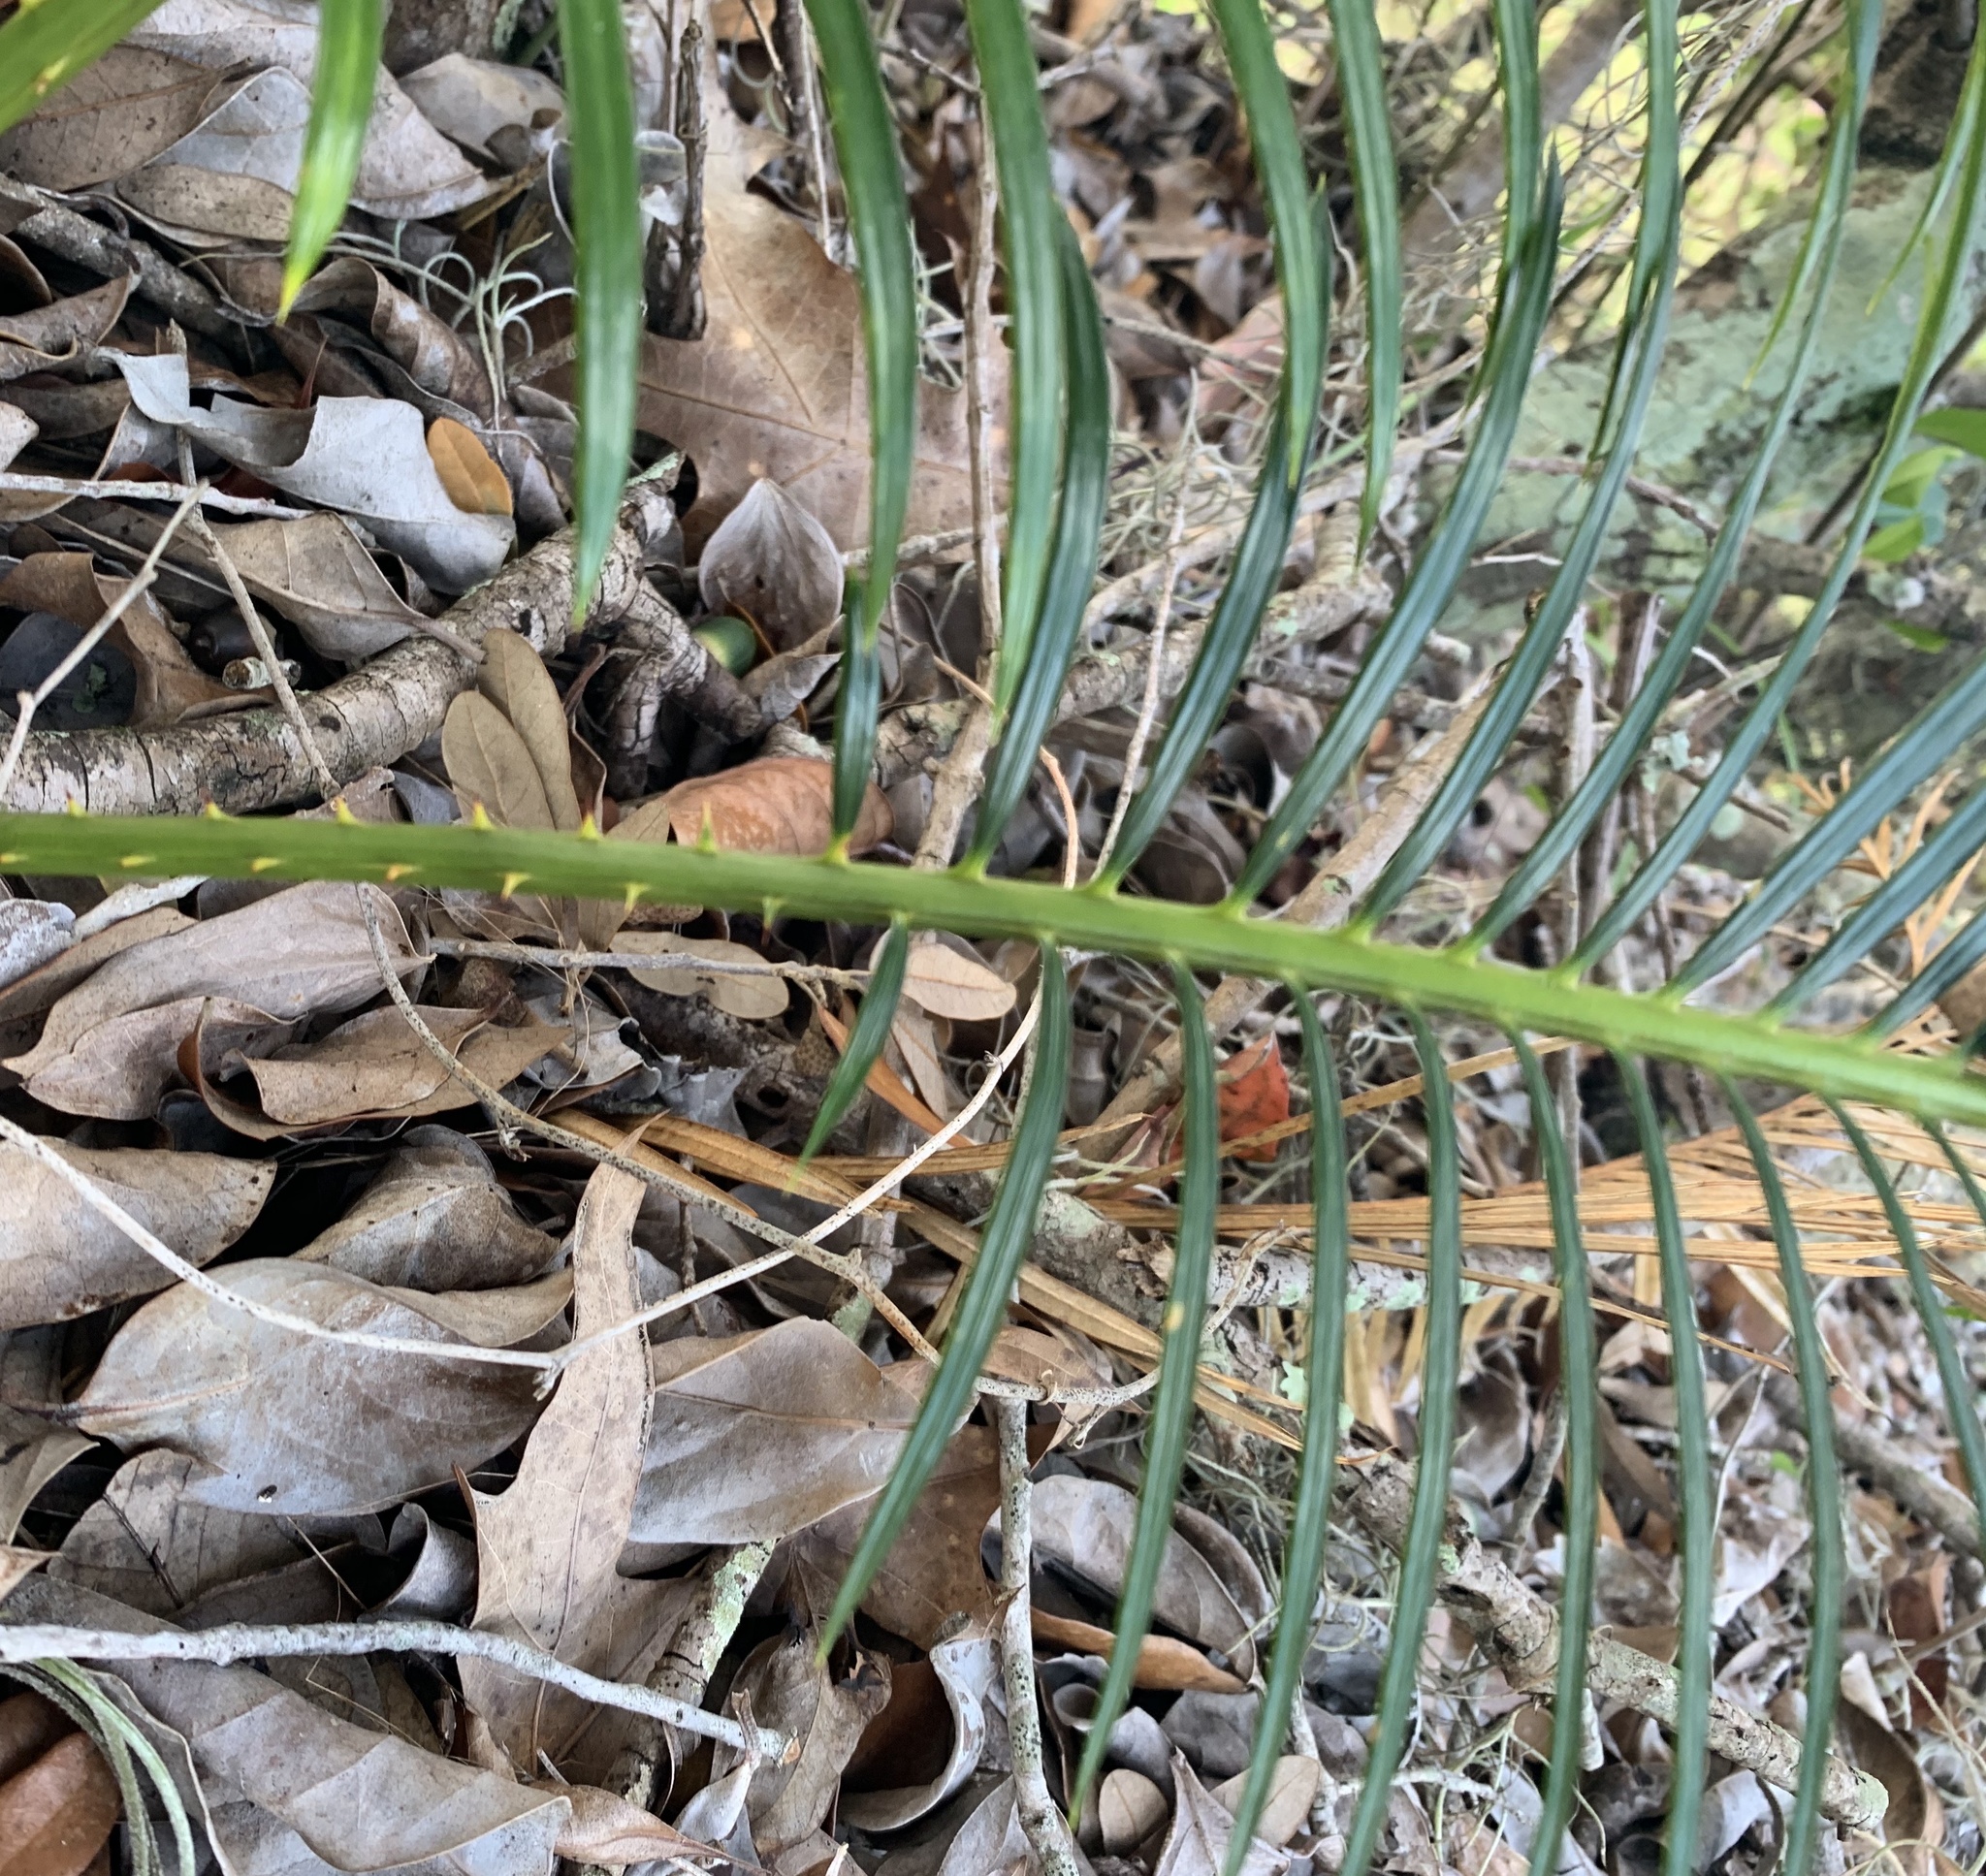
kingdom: Plantae
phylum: Tracheophyta
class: Cycadopsida
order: Cycadales
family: Cycadaceae
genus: Cycas
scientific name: Cycas revoluta
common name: Sago palm
